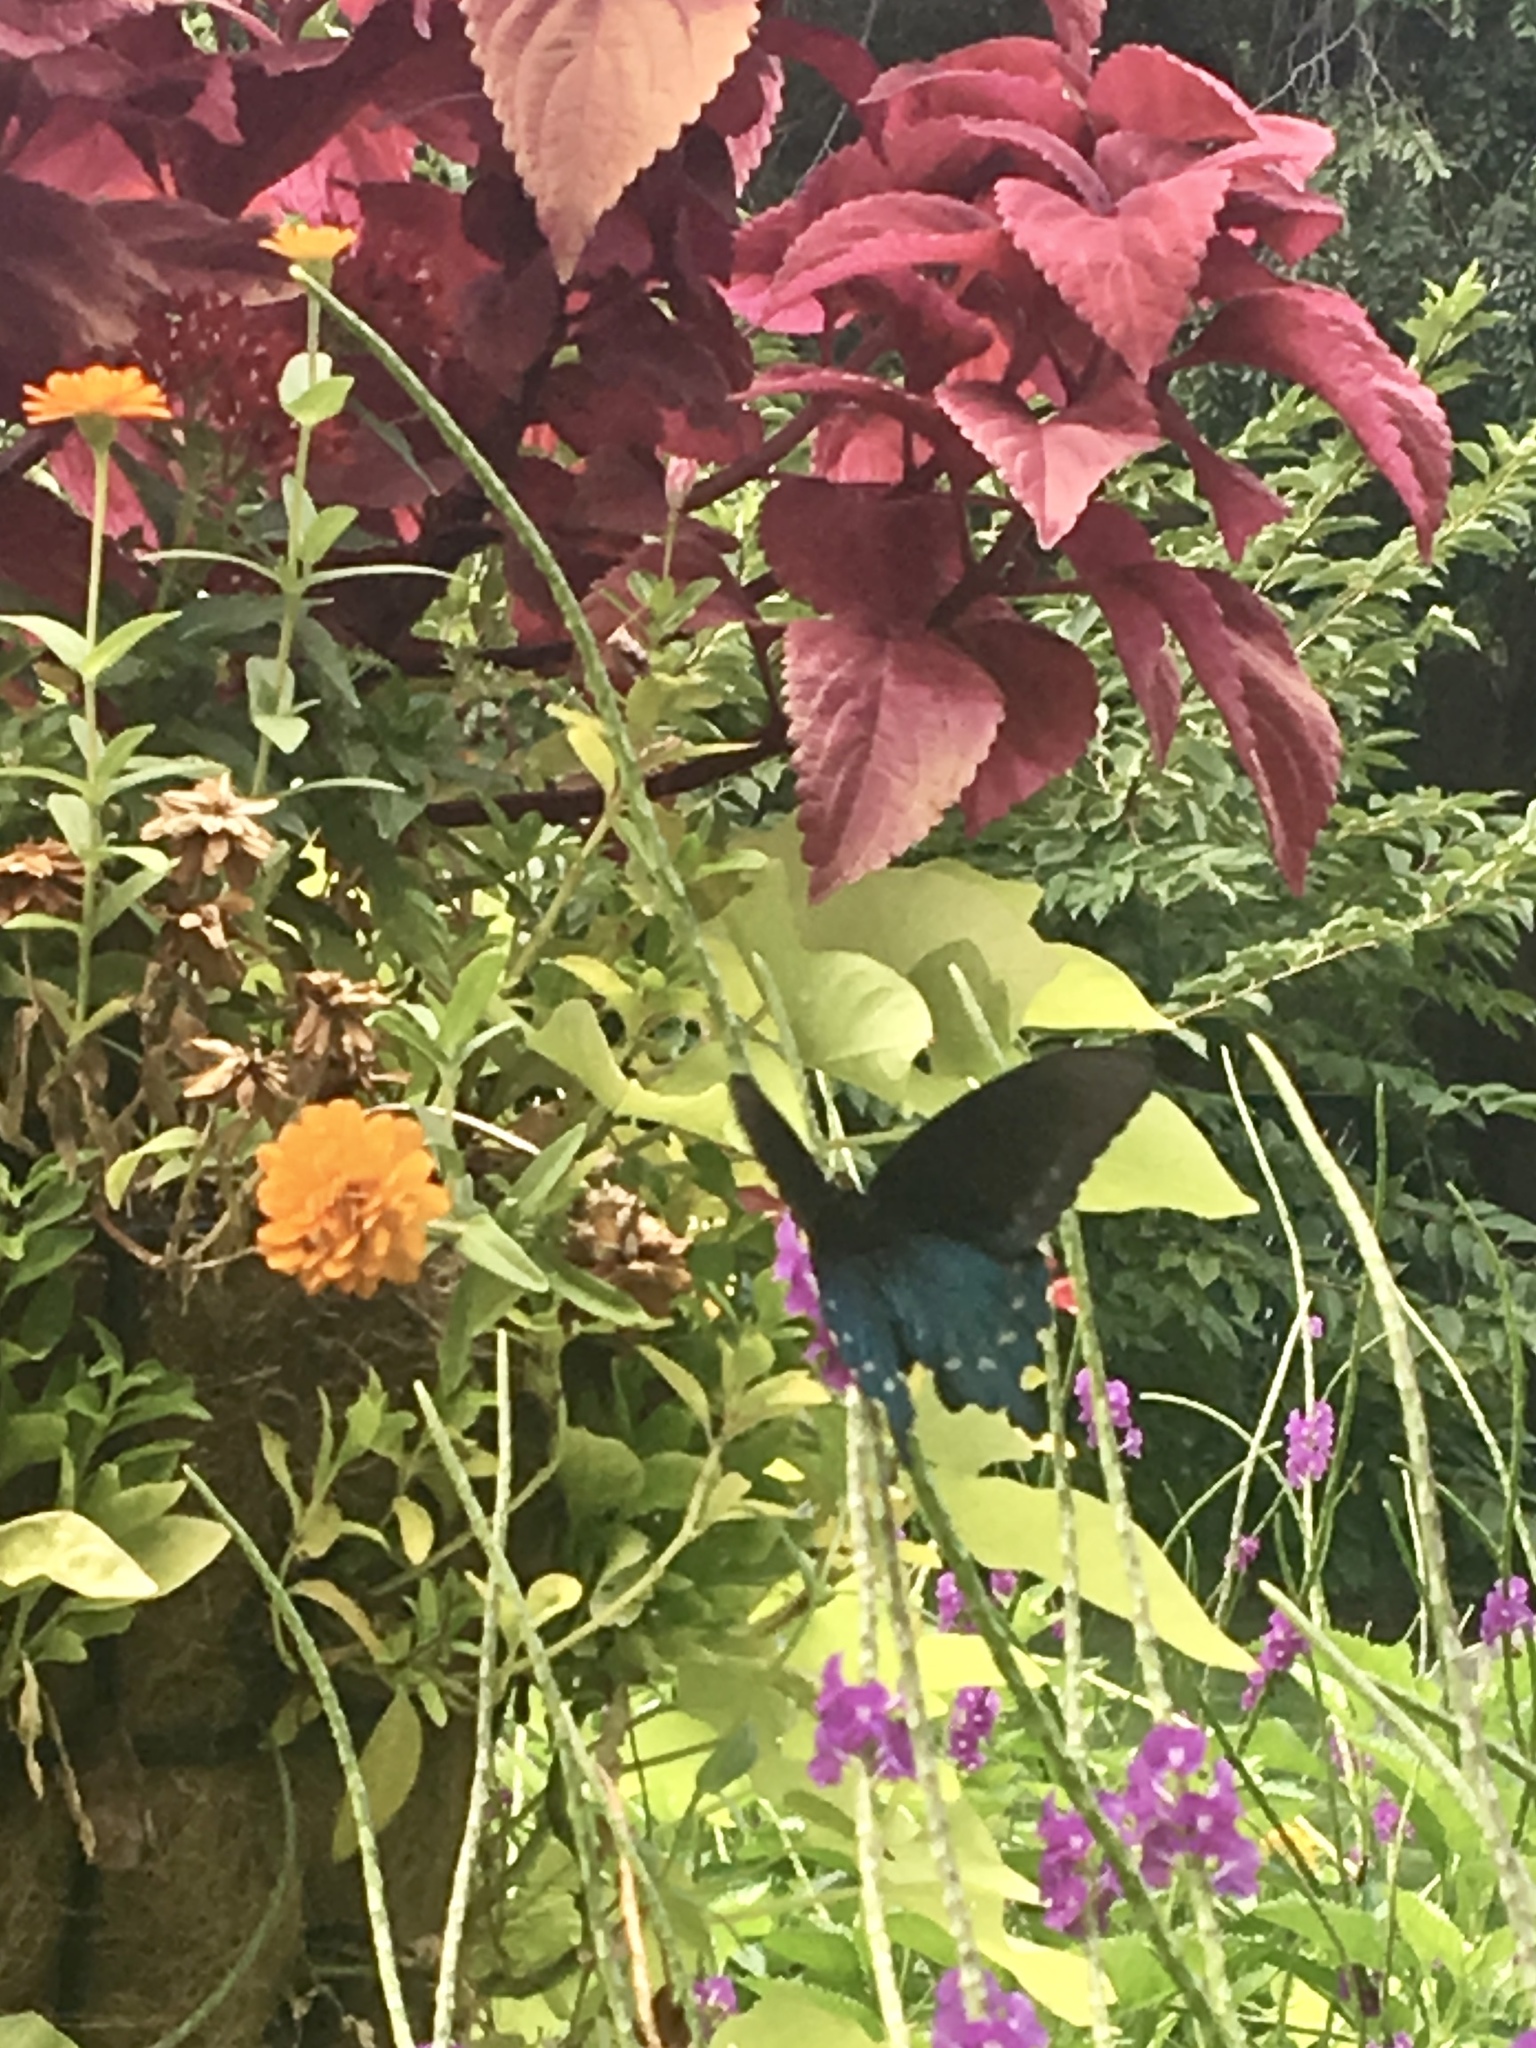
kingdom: Animalia
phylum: Arthropoda
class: Insecta
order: Lepidoptera
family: Papilionidae
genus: Battus
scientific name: Battus philenor
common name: Pipevine swallowtail
